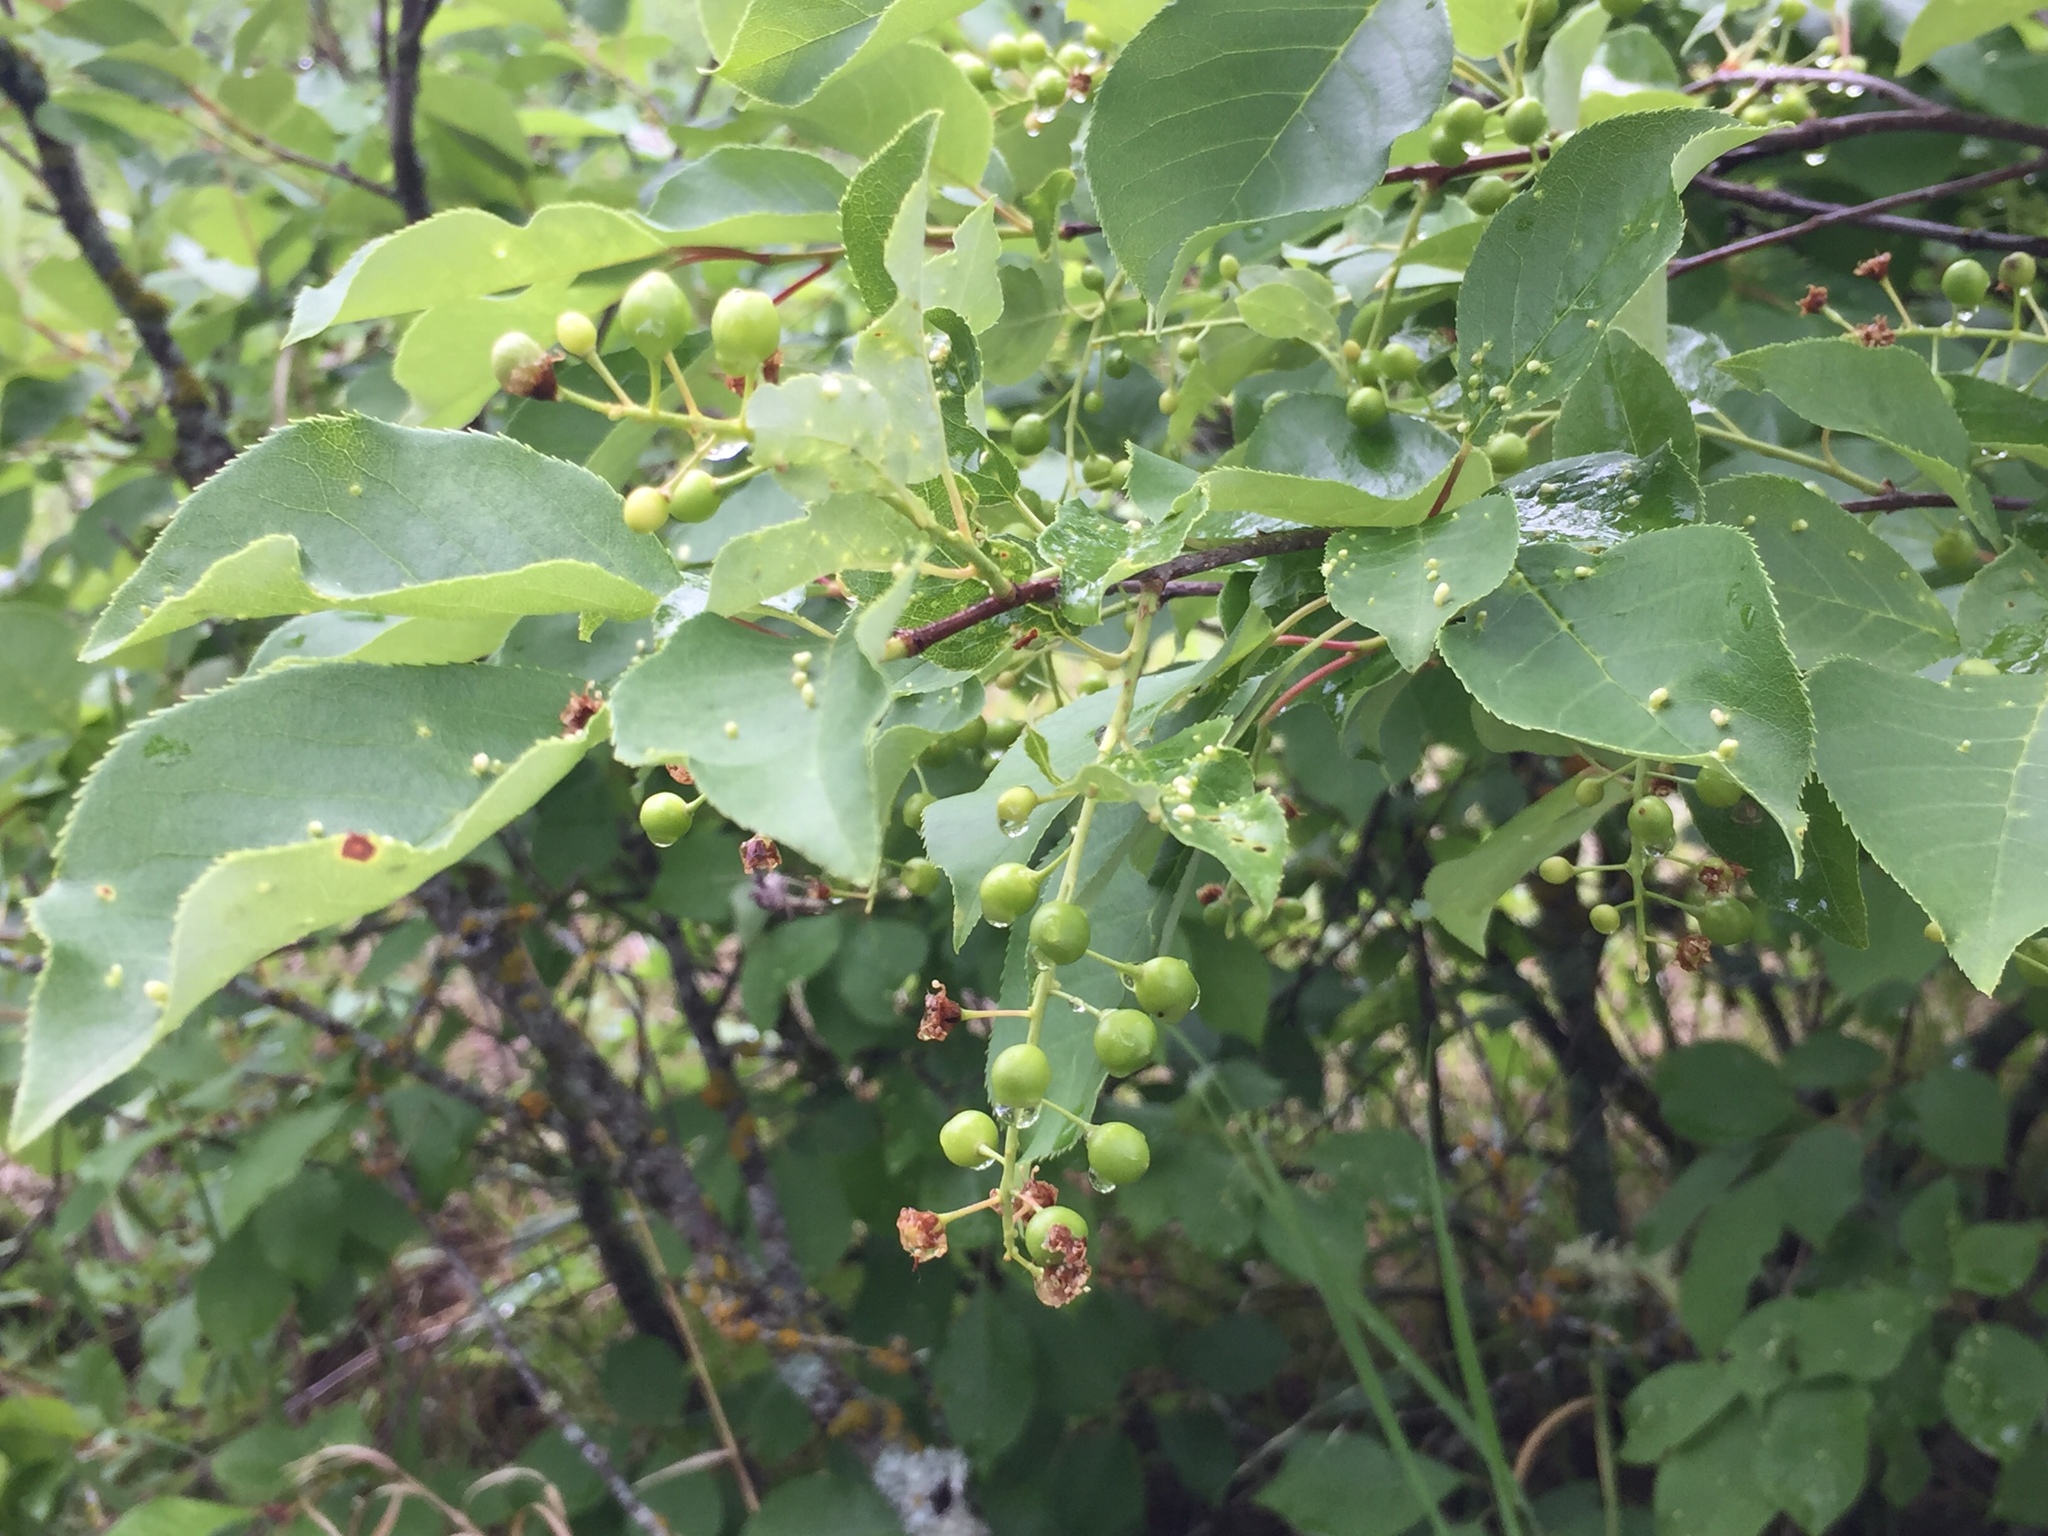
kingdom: Plantae
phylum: Tracheophyta
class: Magnoliopsida
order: Rosales
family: Rosaceae
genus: Prunus
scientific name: Prunus virginiana
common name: Chokecherry
